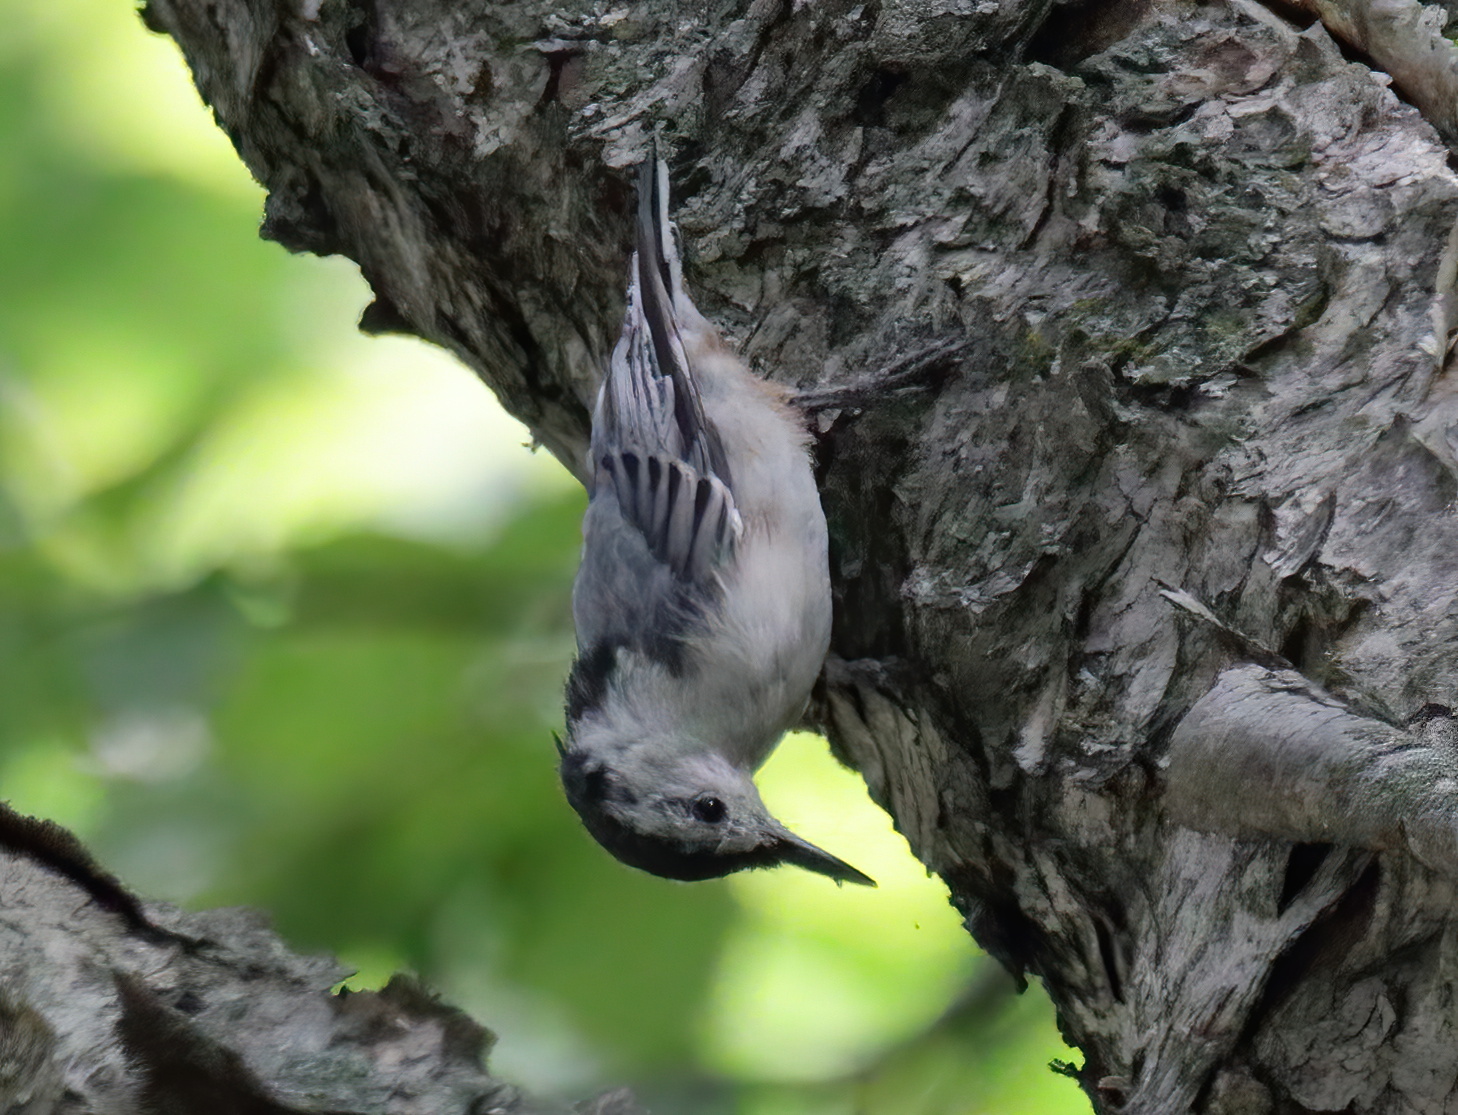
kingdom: Animalia
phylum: Chordata
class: Aves
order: Passeriformes
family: Sittidae
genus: Sitta
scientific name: Sitta carolinensis
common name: White-breasted nuthatch
